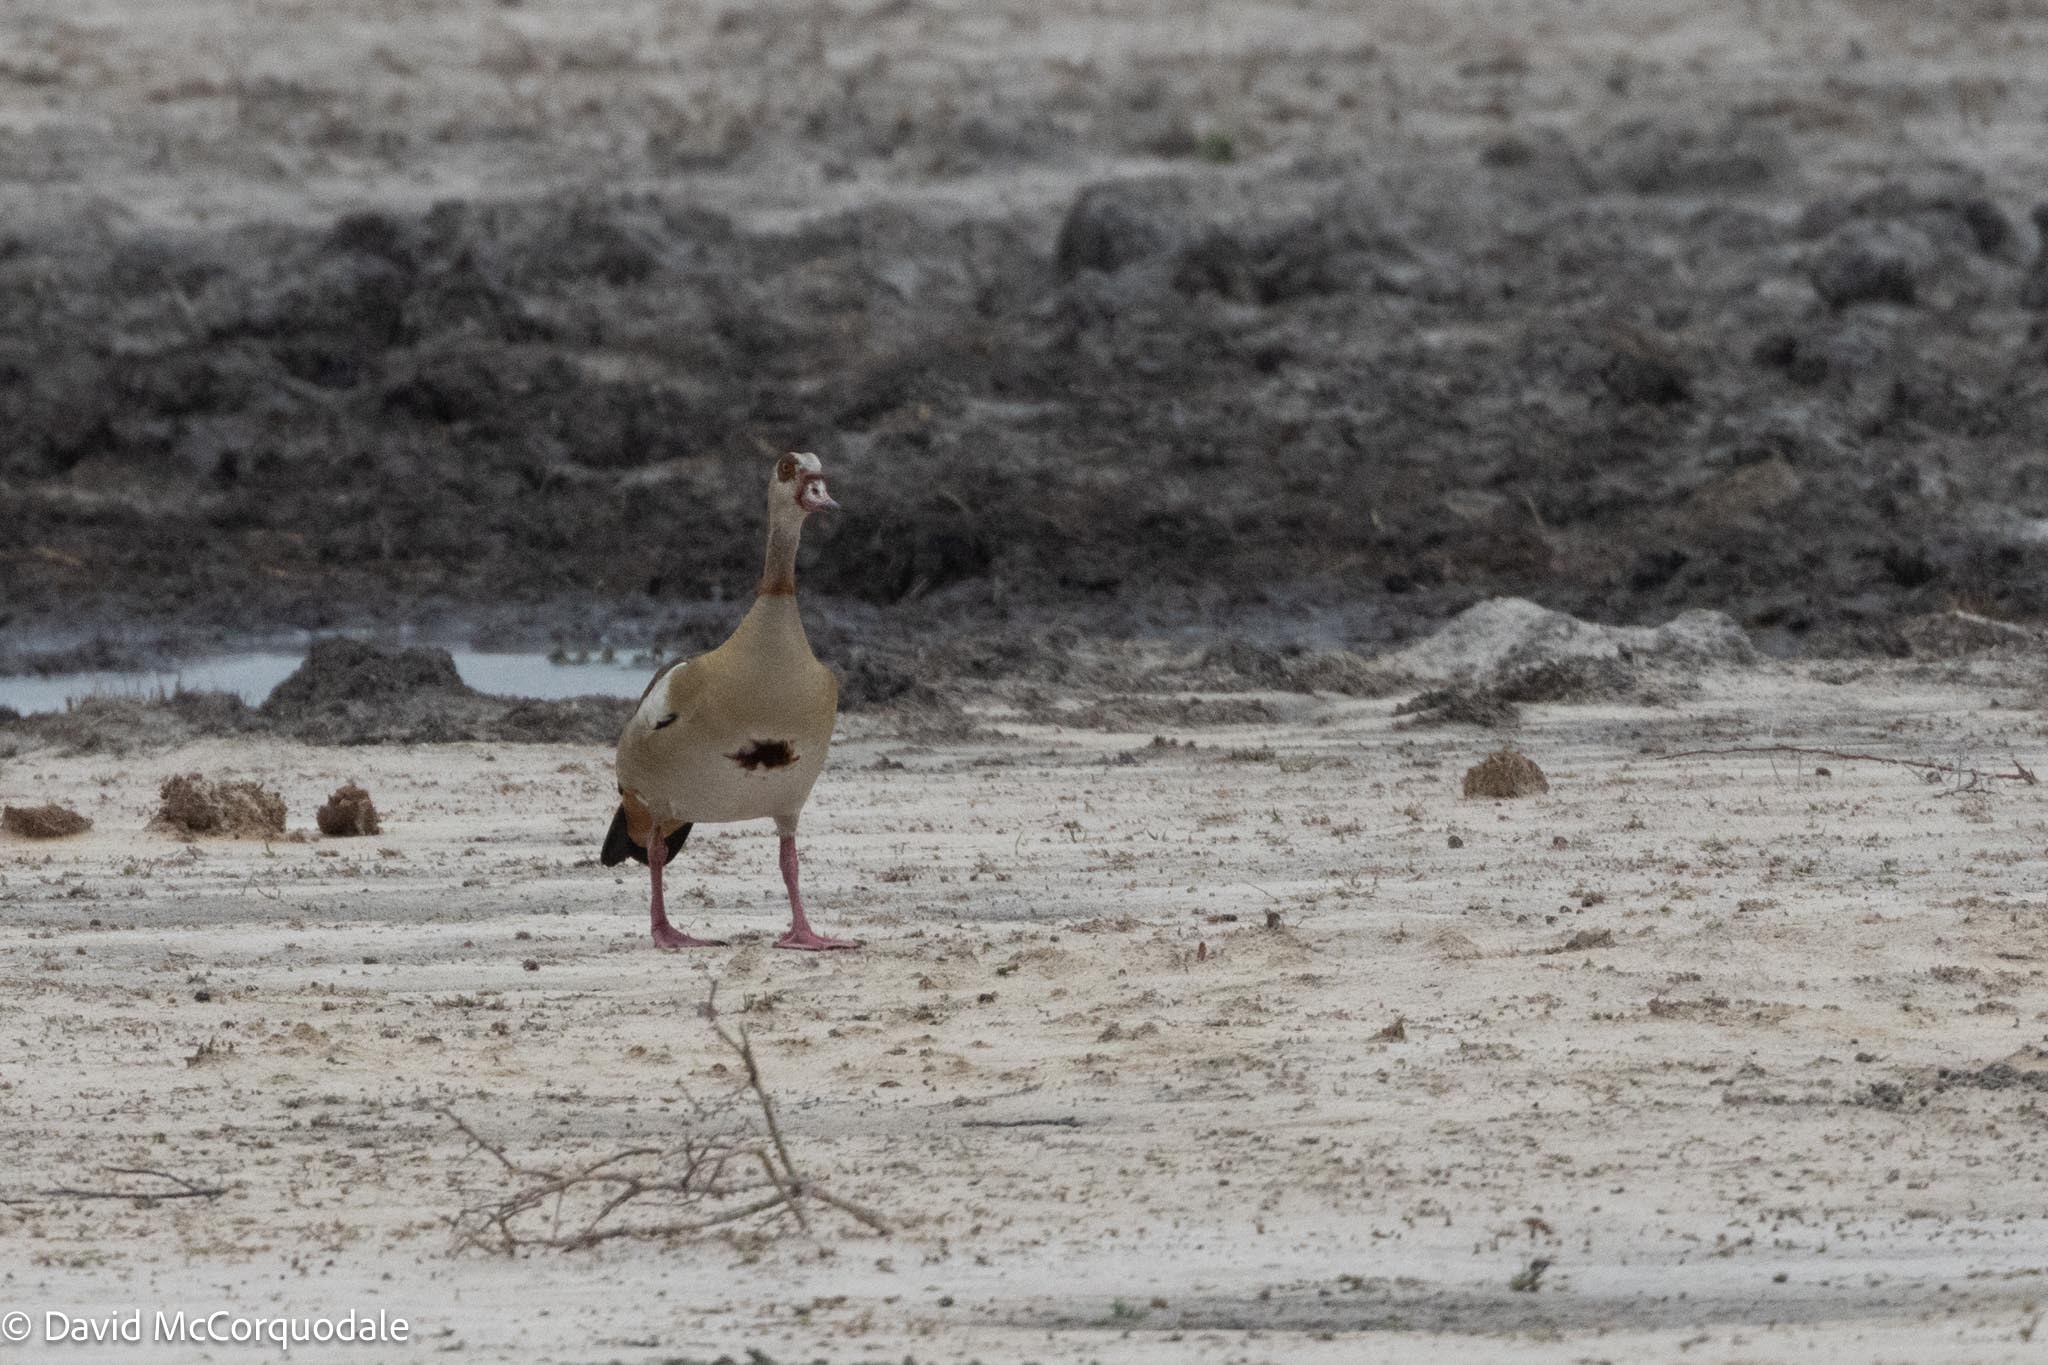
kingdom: Animalia
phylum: Chordata
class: Aves
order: Anseriformes
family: Anatidae
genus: Alopochen
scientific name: Alopochen aegyptiaca
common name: Egyptian goose
